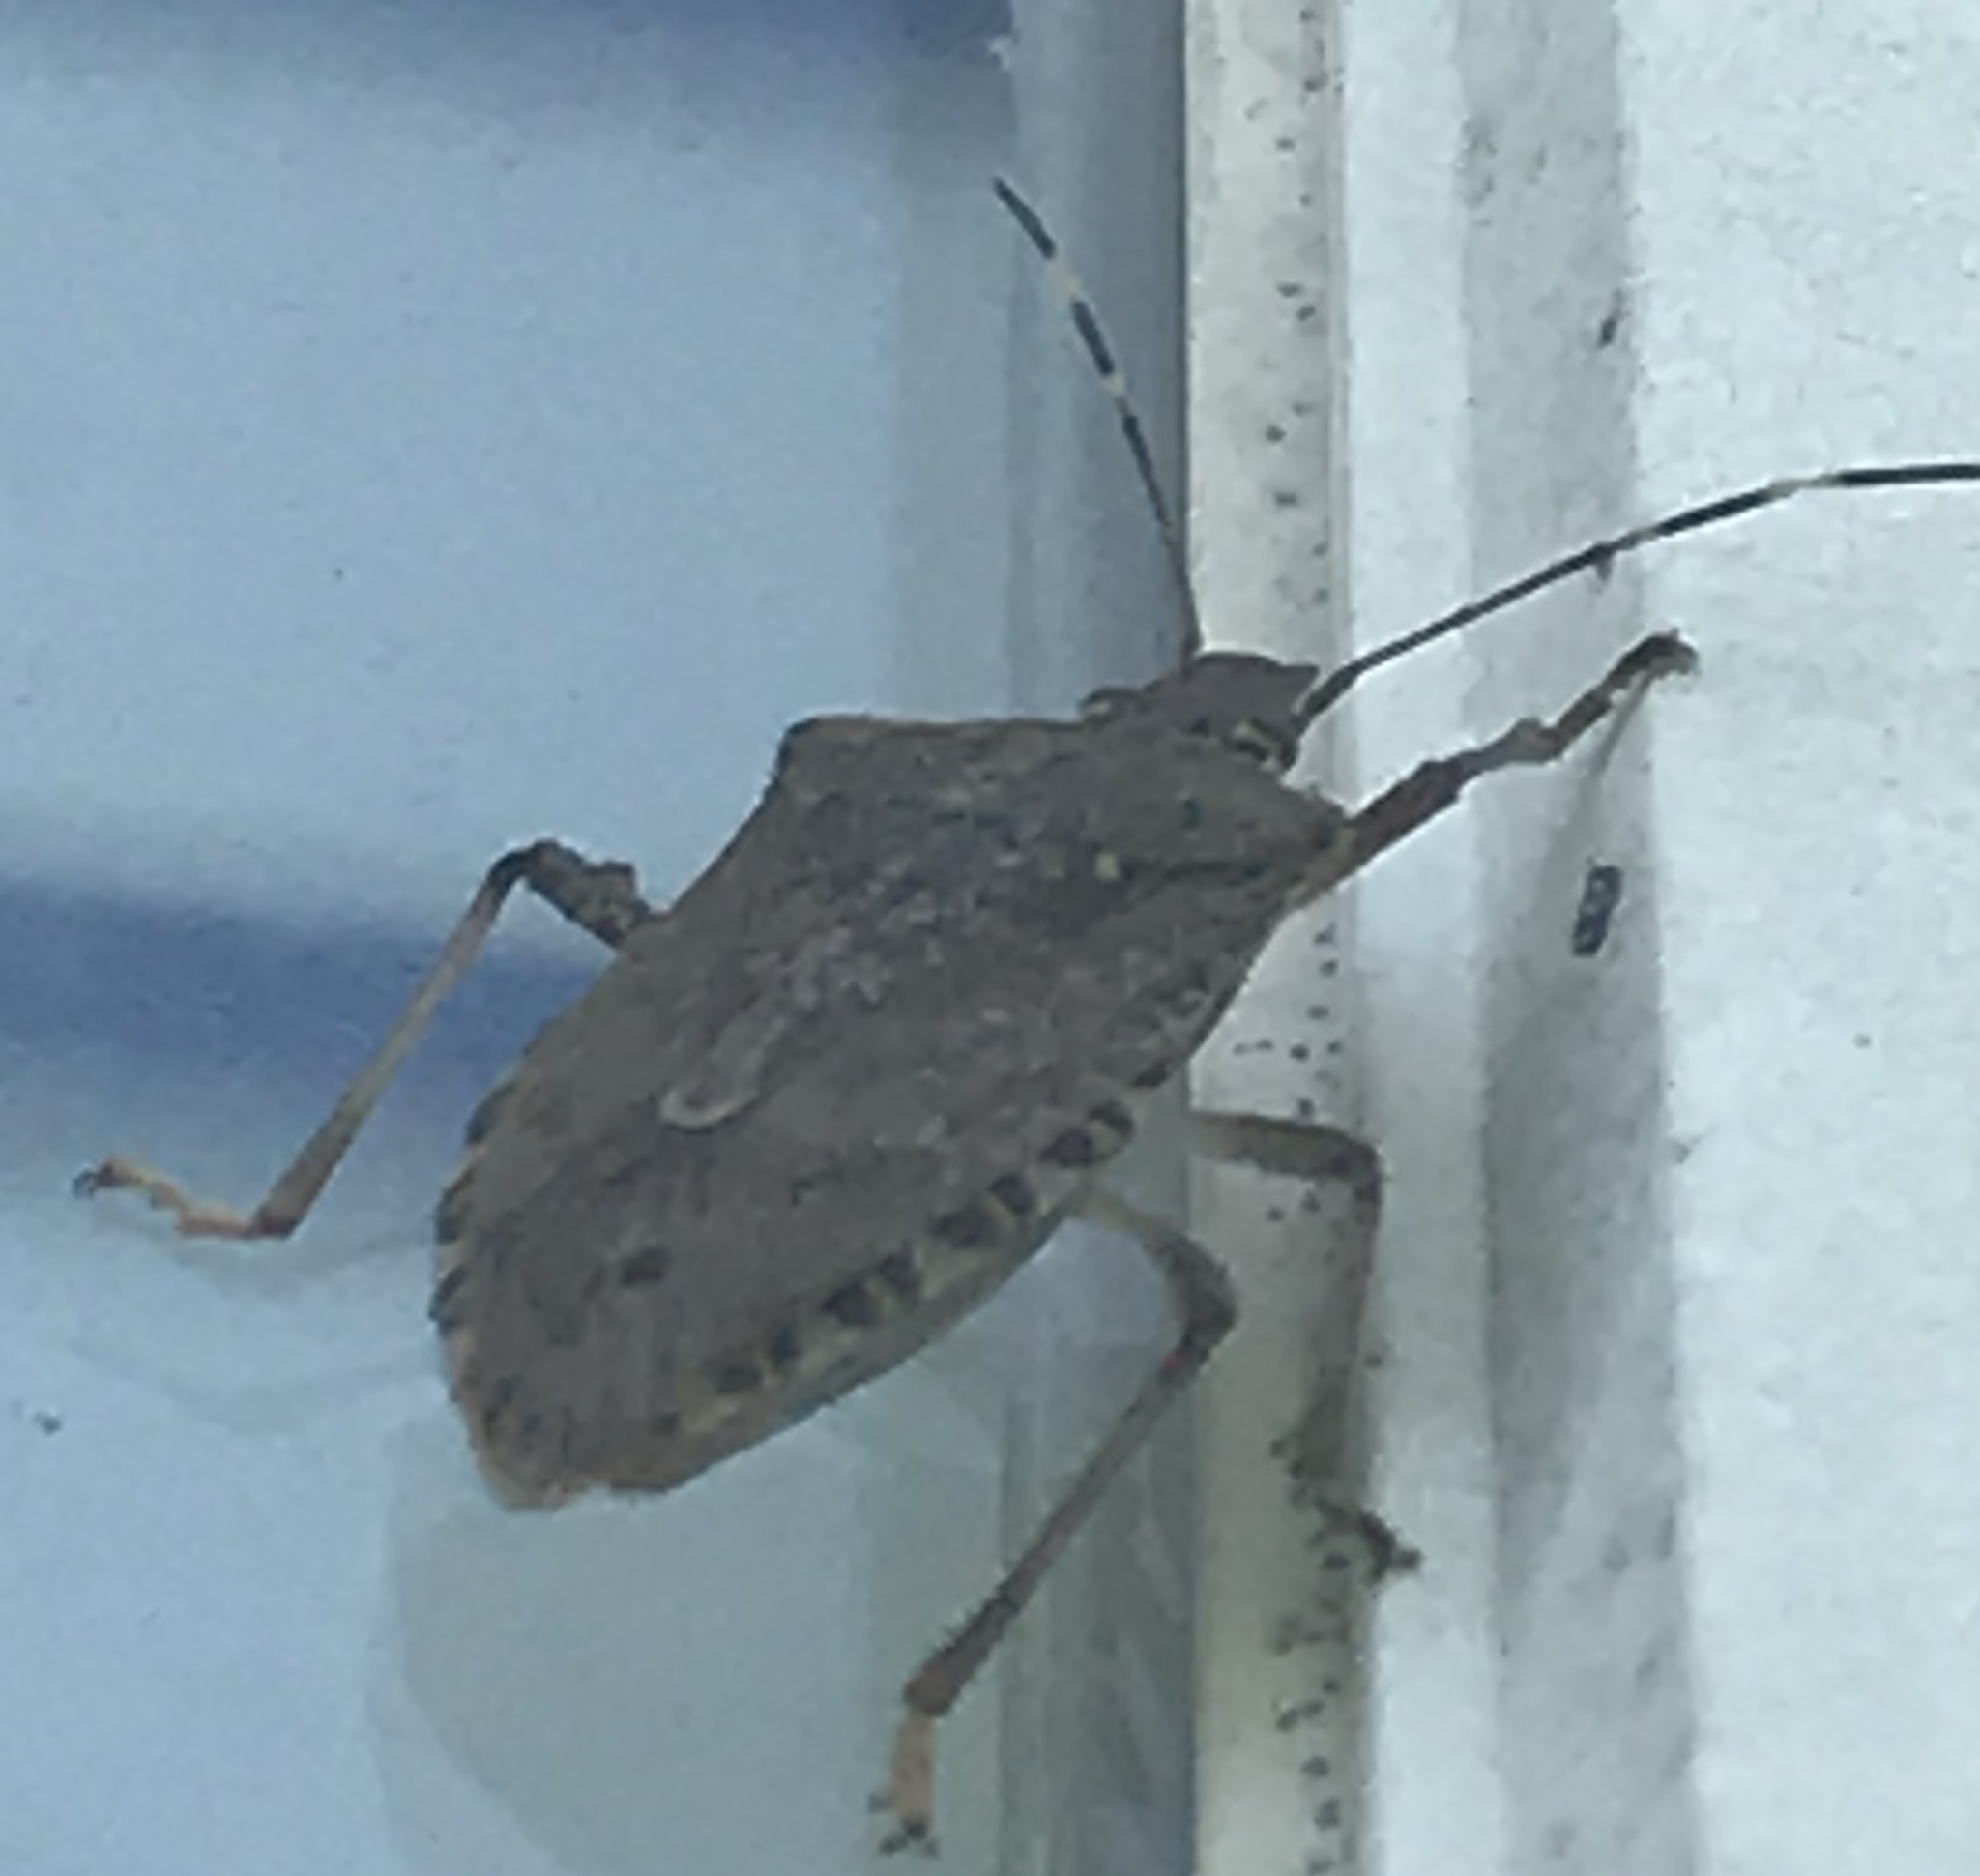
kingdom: Animalia
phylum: Arthropoda
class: Insecta
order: Hemiptera
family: Pentatomidae
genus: Halyomorpha
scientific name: Halyomorpha halys
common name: Brown marmorated stink bug
